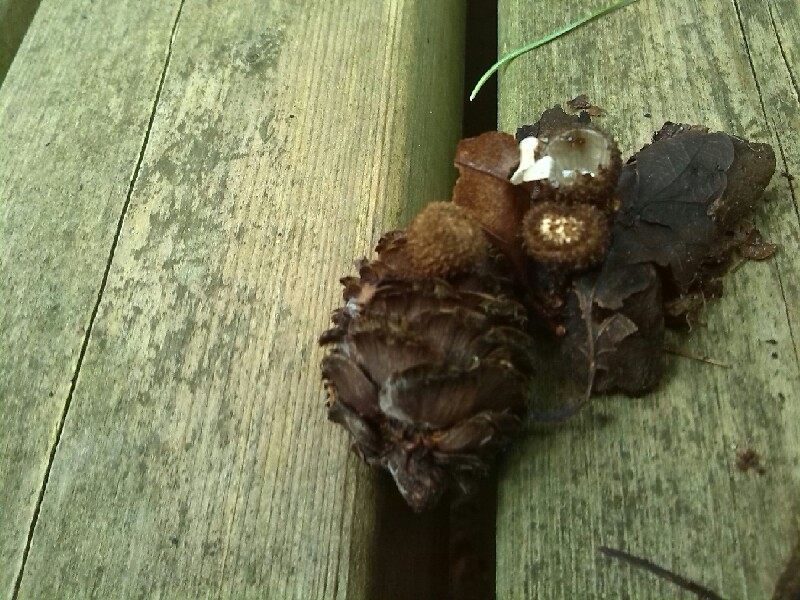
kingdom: Fungi
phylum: Basidiomycota
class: Agaricomycetes
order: Agaricales
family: Agaricaceae
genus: Cyathus
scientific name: Cyathus striatus
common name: Fluted bird's nest
